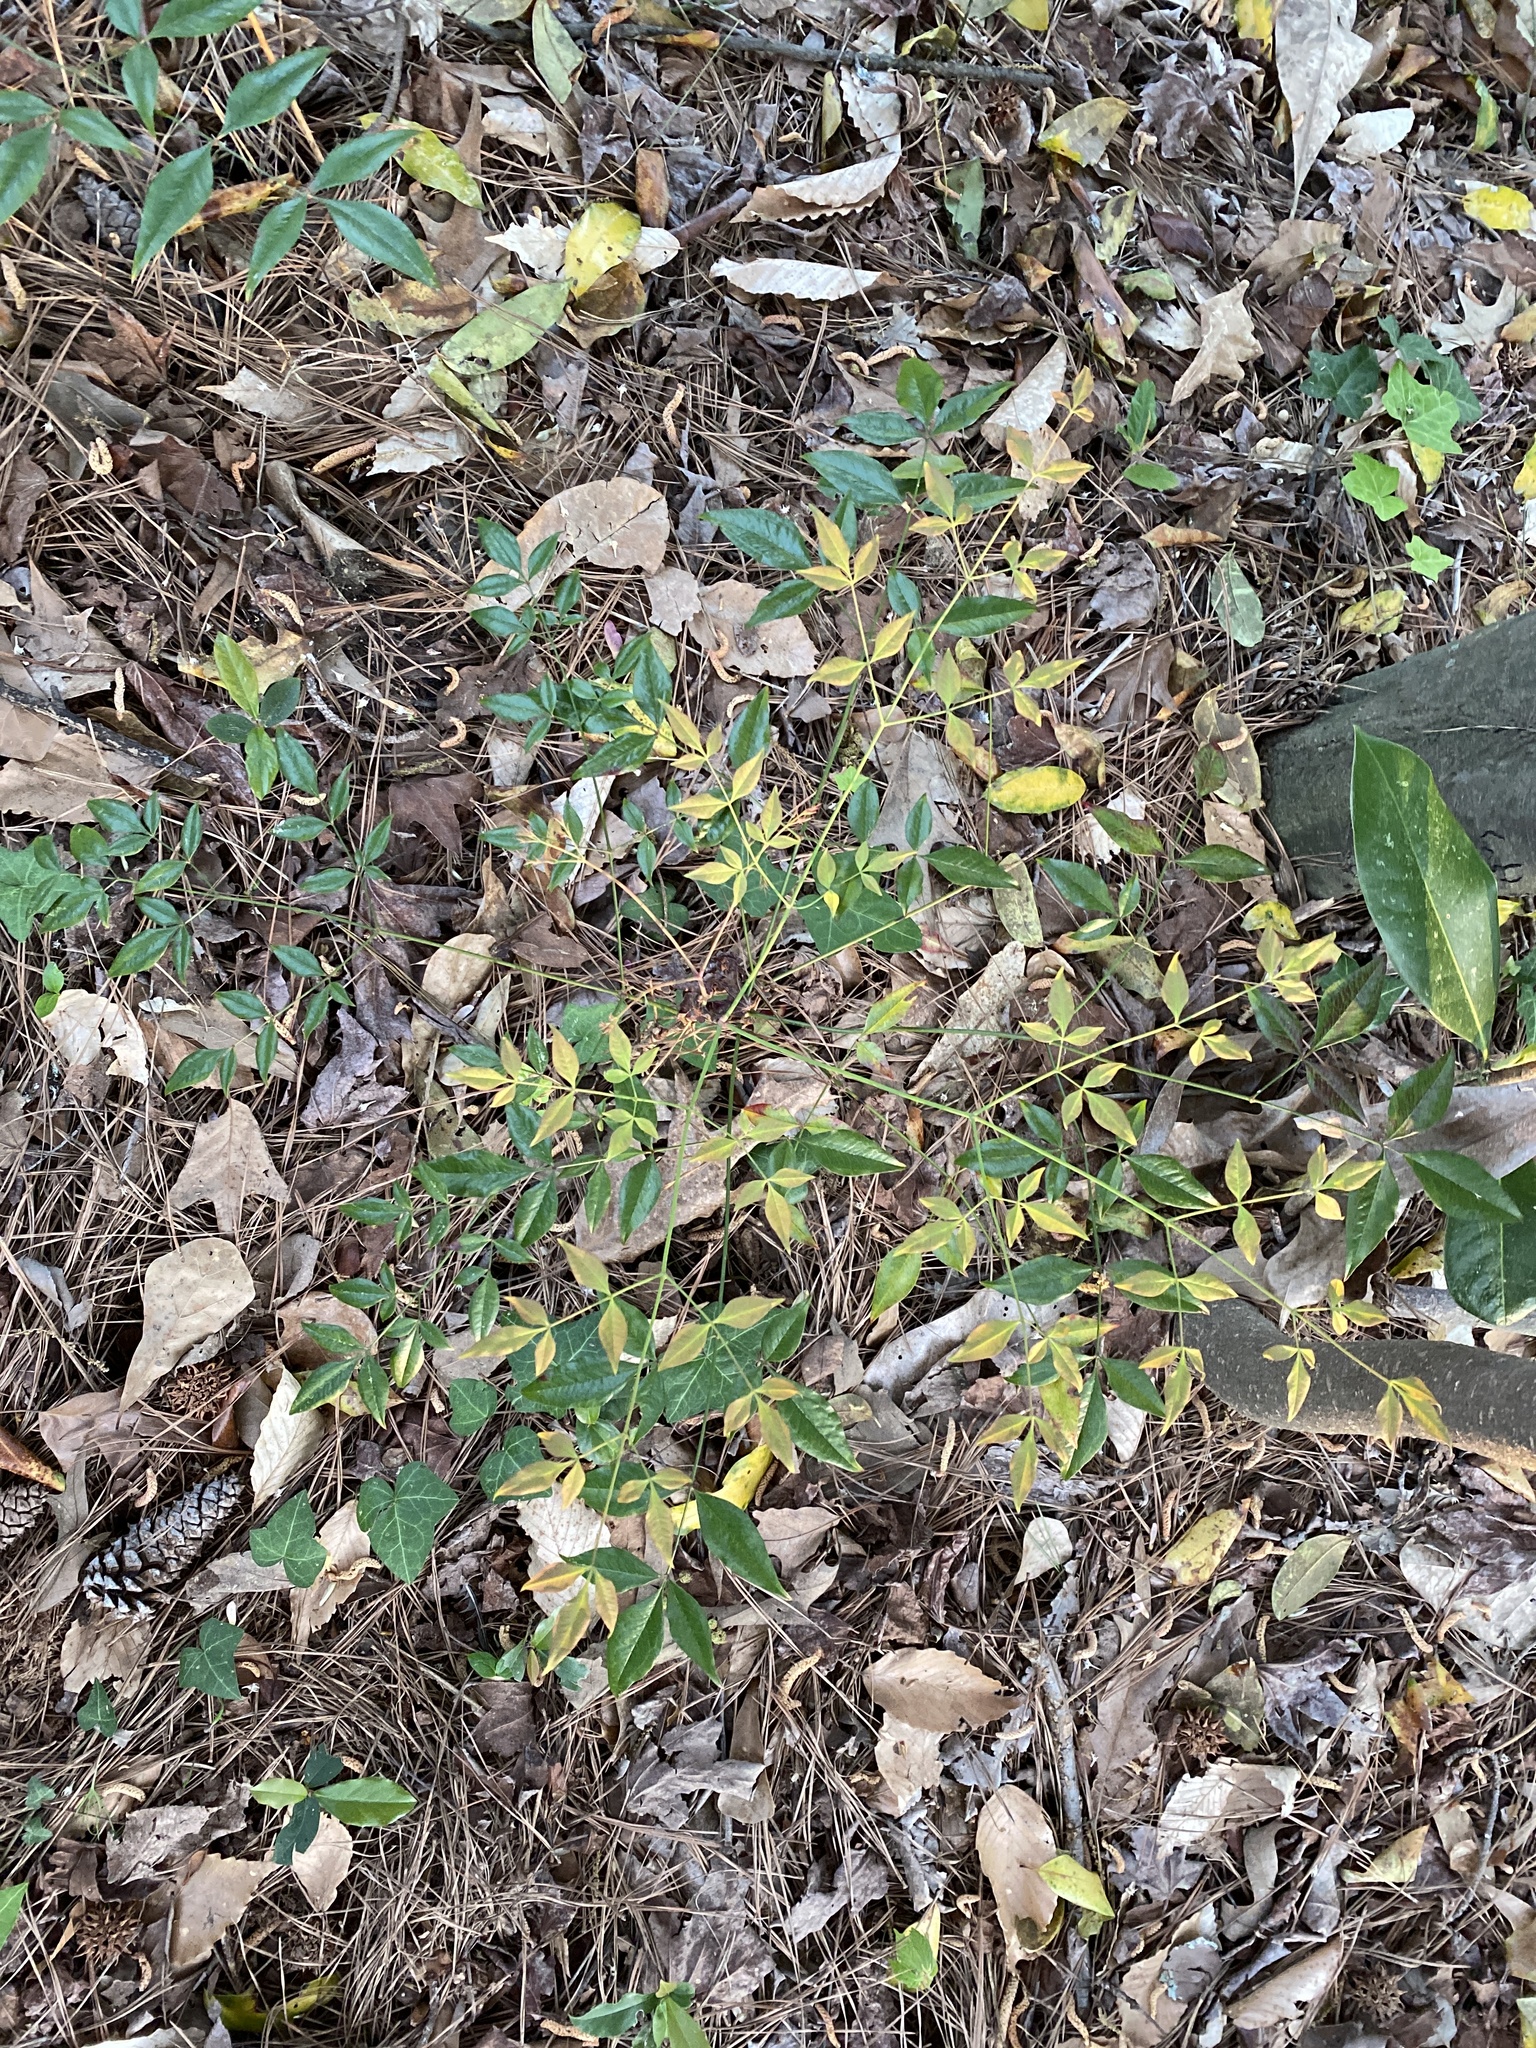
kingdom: Plantae
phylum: Tracheophyta
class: Magnoliopsida
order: Ranunculales
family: Berberidaceae
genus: Nandina
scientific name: Nandina domestica
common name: Sacred bamboo
